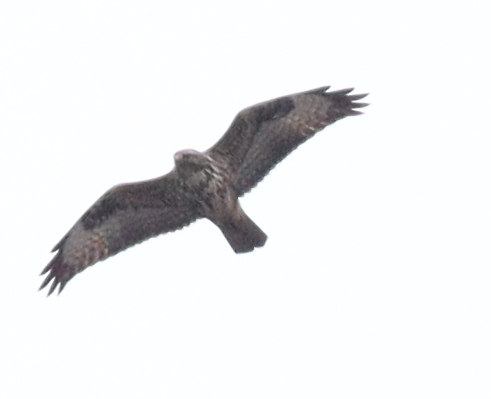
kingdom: Animalia
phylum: Chordata
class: Aves
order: Accipitriformes
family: Accipitridae
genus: Buteo
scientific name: Buteo buteo
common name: Common buzzard
